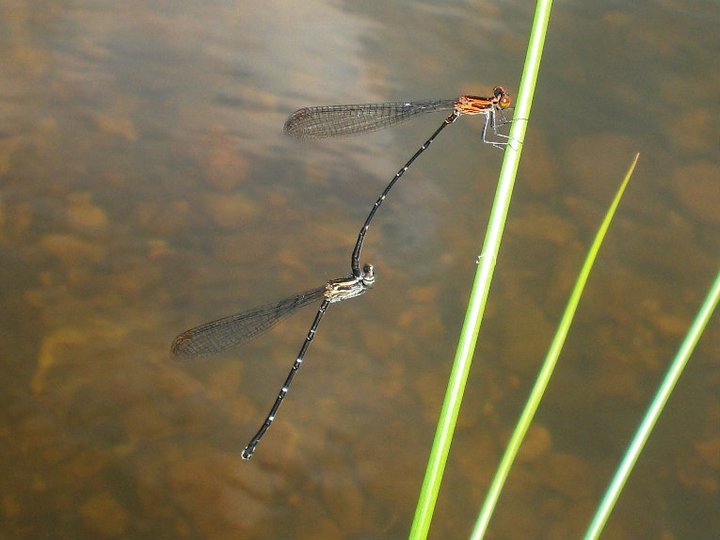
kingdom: Animalia
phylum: Arthropoda
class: Insecta
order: Odonata
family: Platycnemididae
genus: Elattoneura
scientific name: Elattoneura atkinsoni
